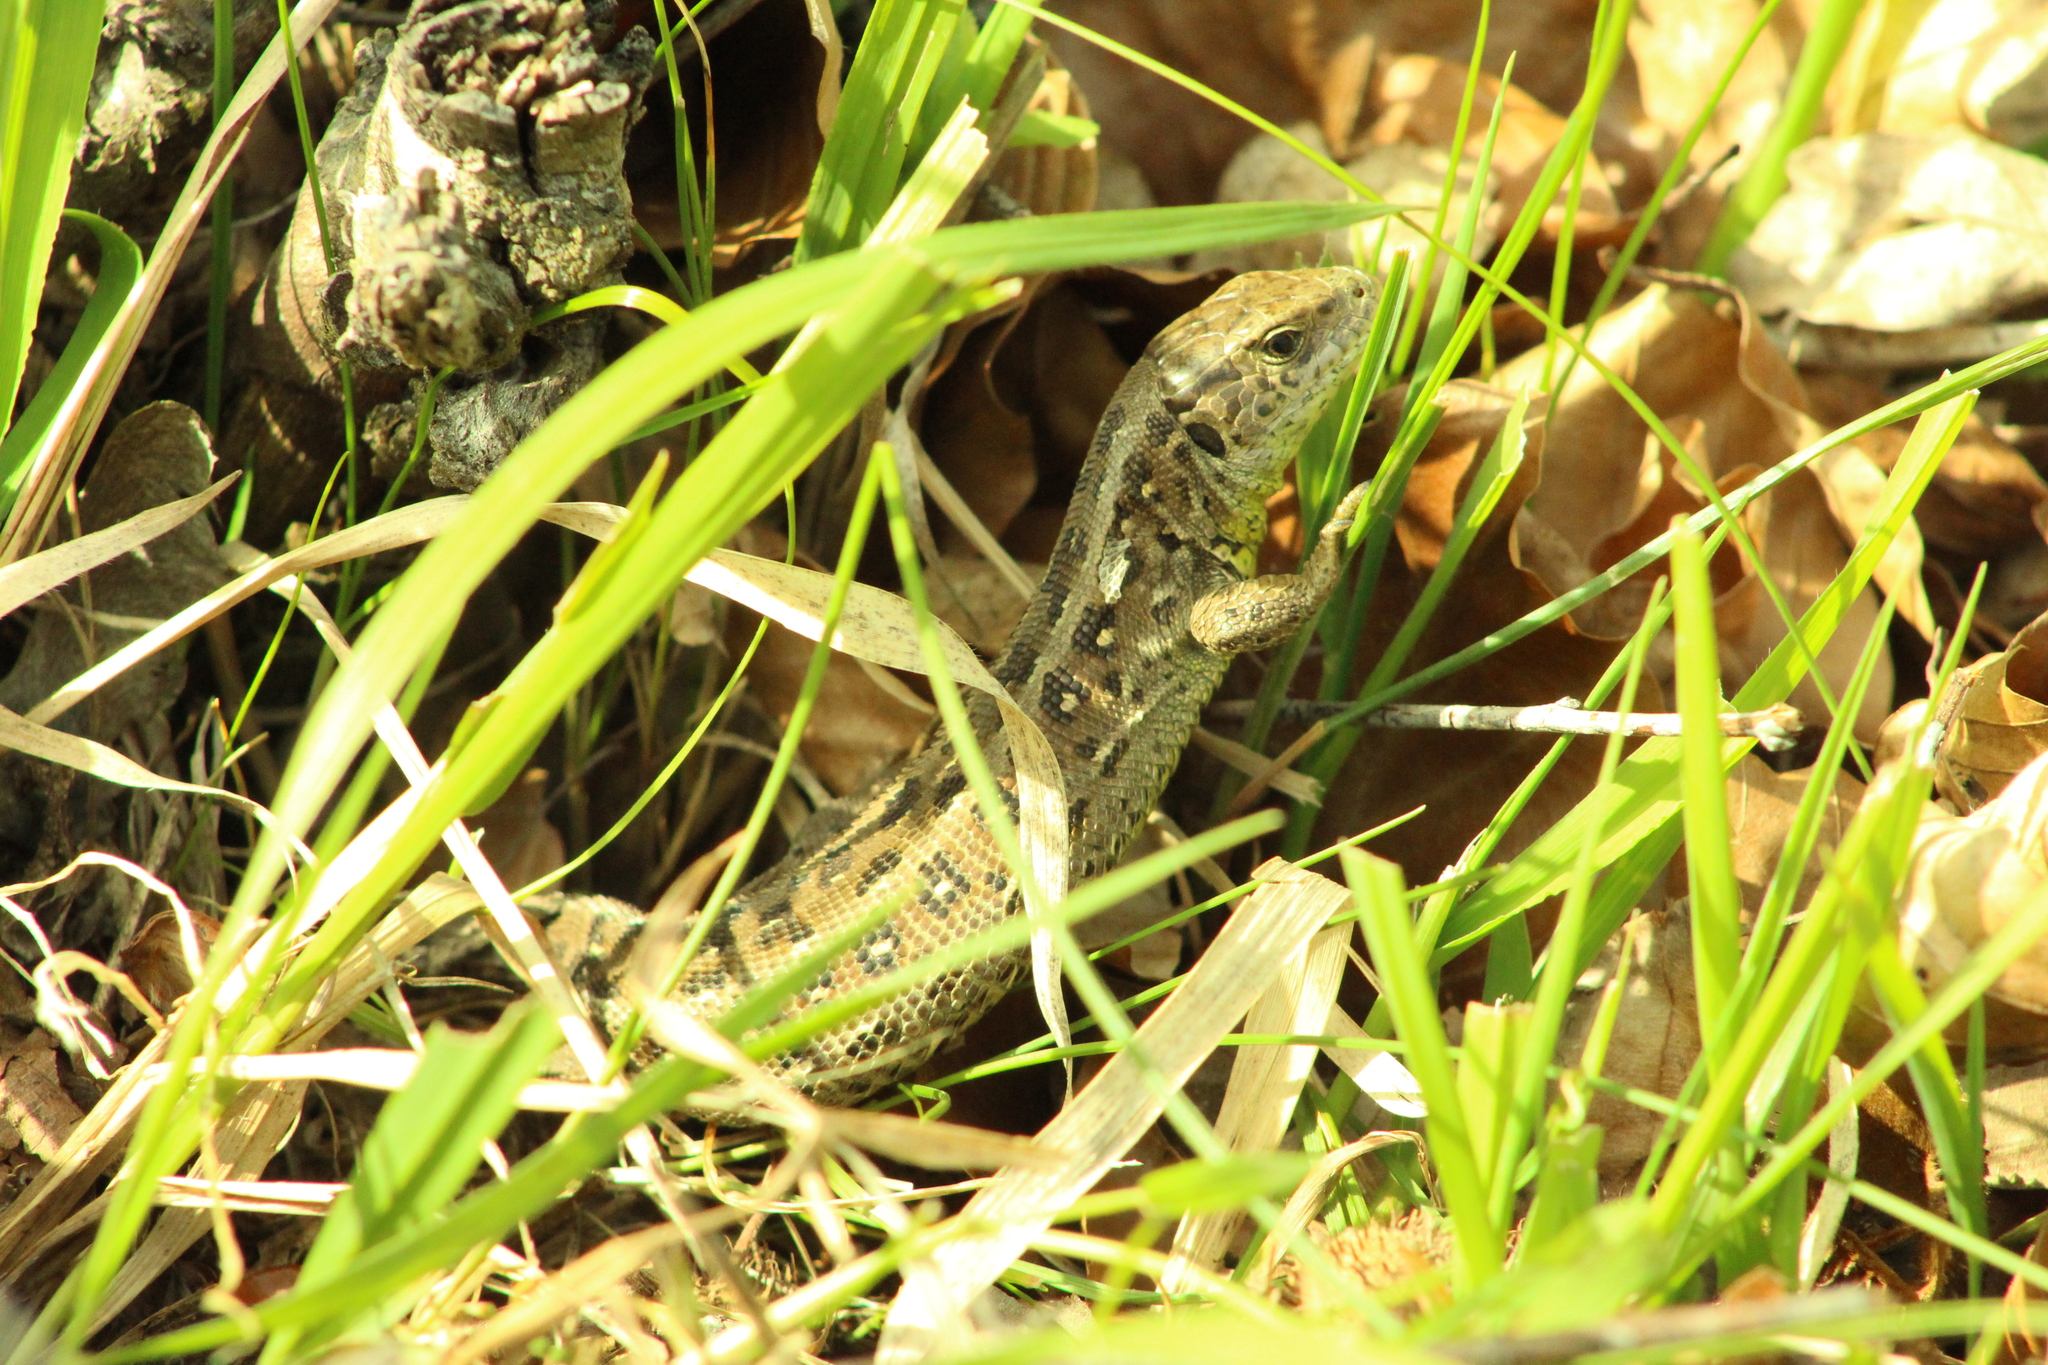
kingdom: Animalia
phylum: Chordata
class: Squamata
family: Lacertidae
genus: Lacerta
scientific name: Lacerta agilis
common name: Sand lizard
